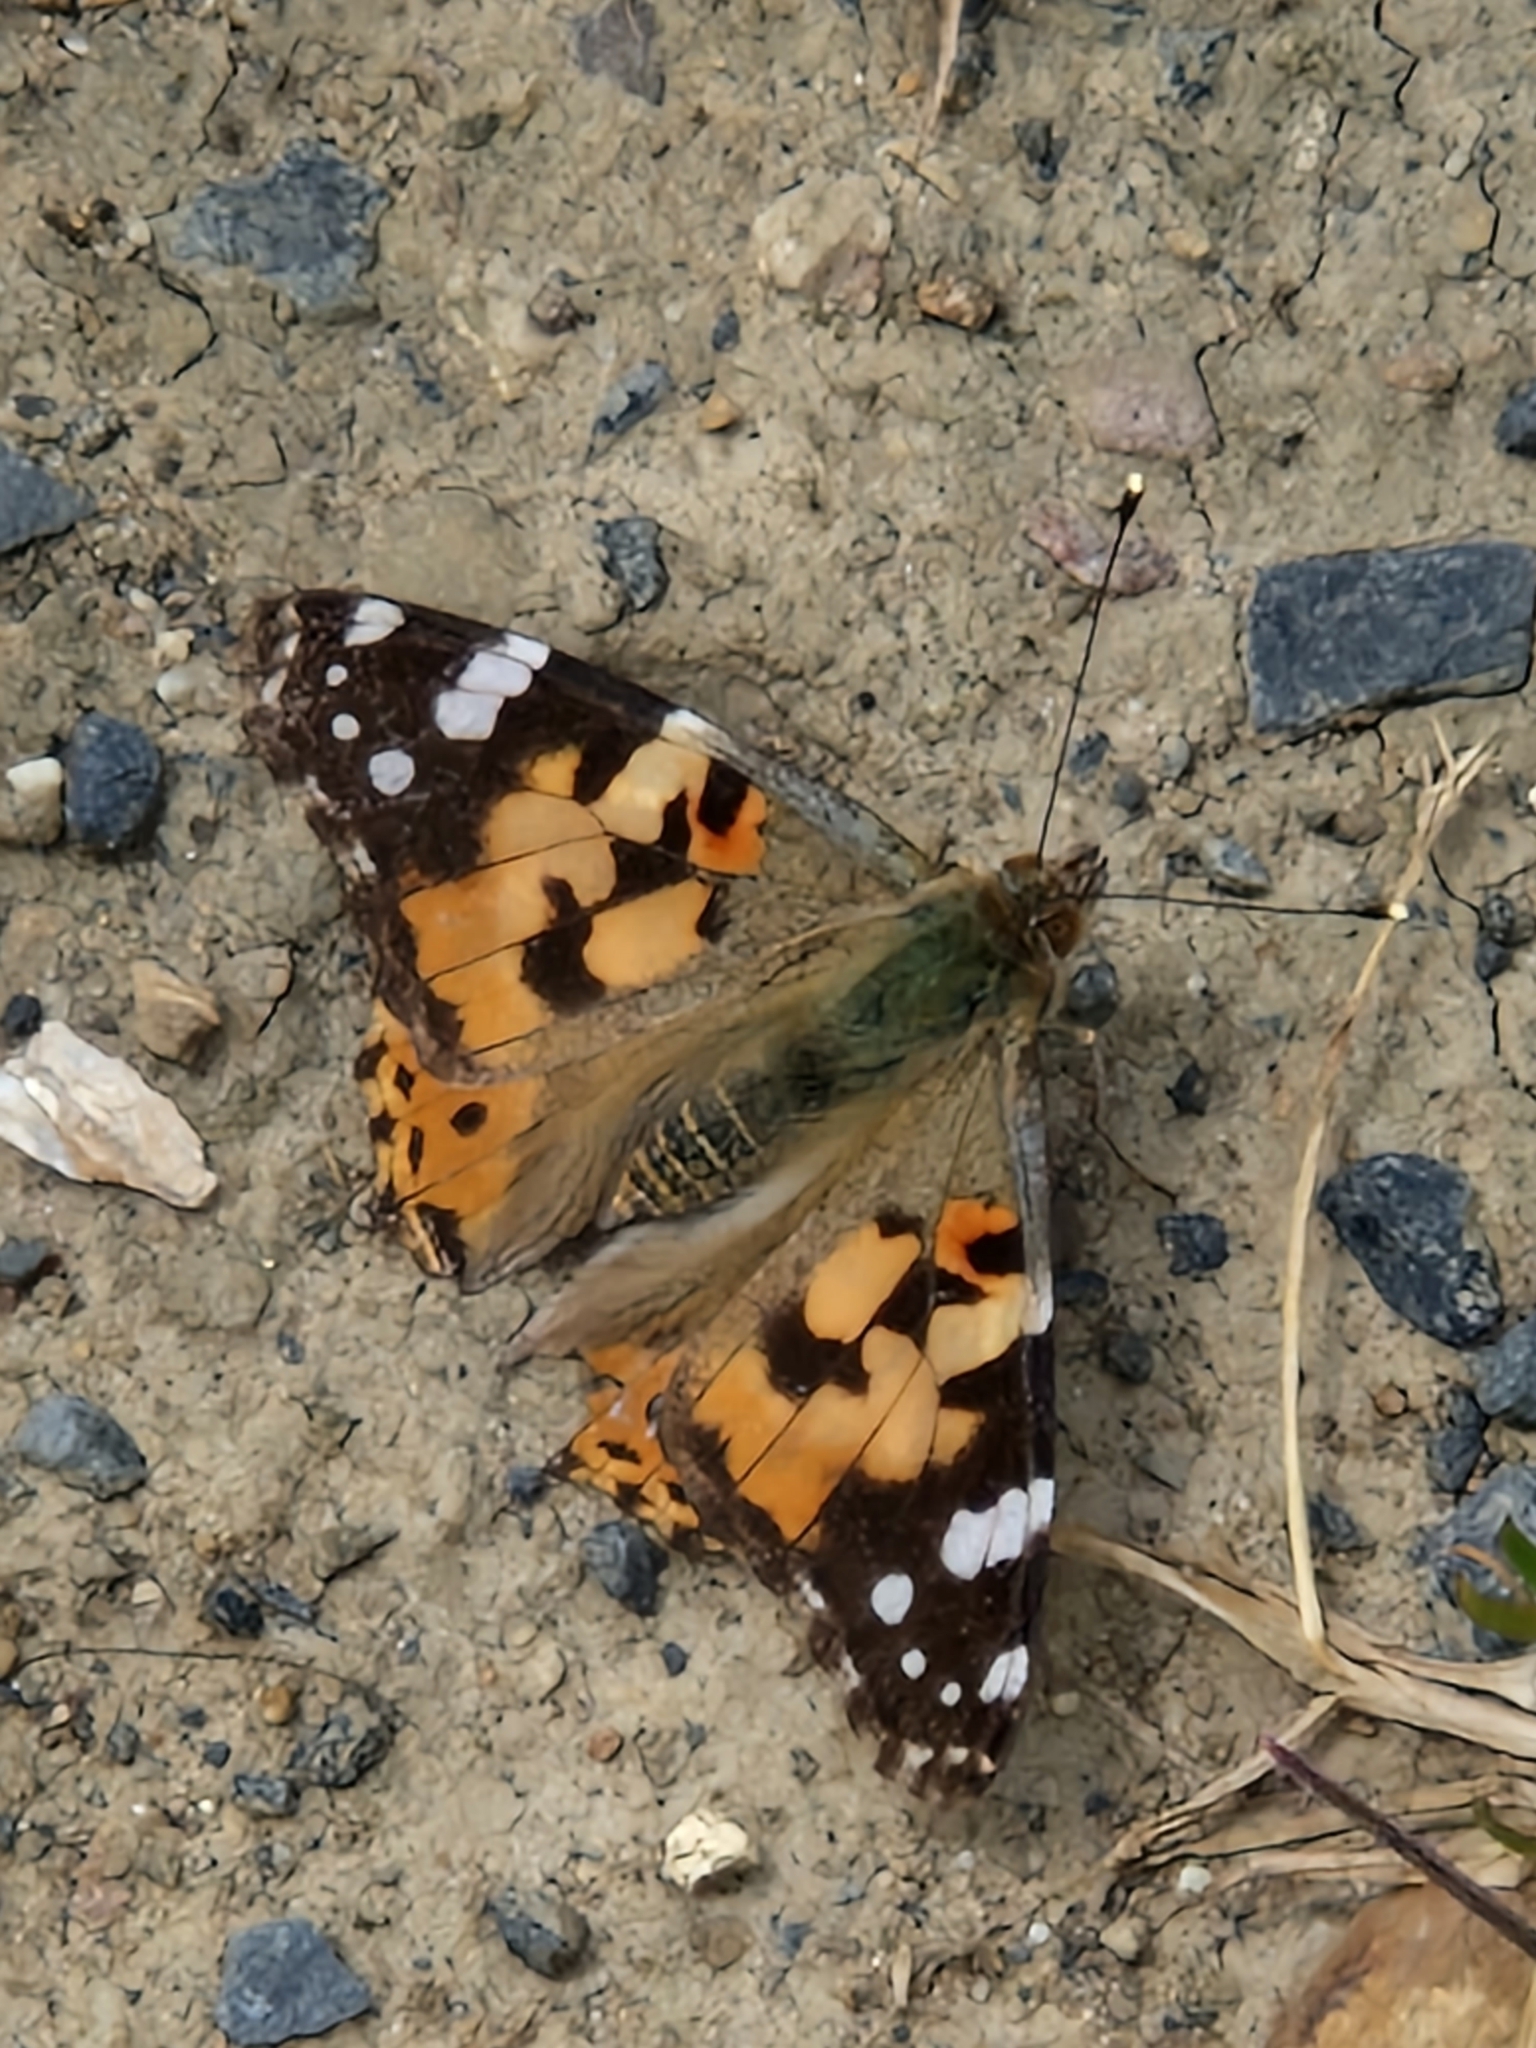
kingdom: Animalia
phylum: Arthropoda
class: Insecta
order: Lepidoptera
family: Nymphalidae
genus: Vanessa
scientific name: Vanessa cardui
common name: Painted lady
